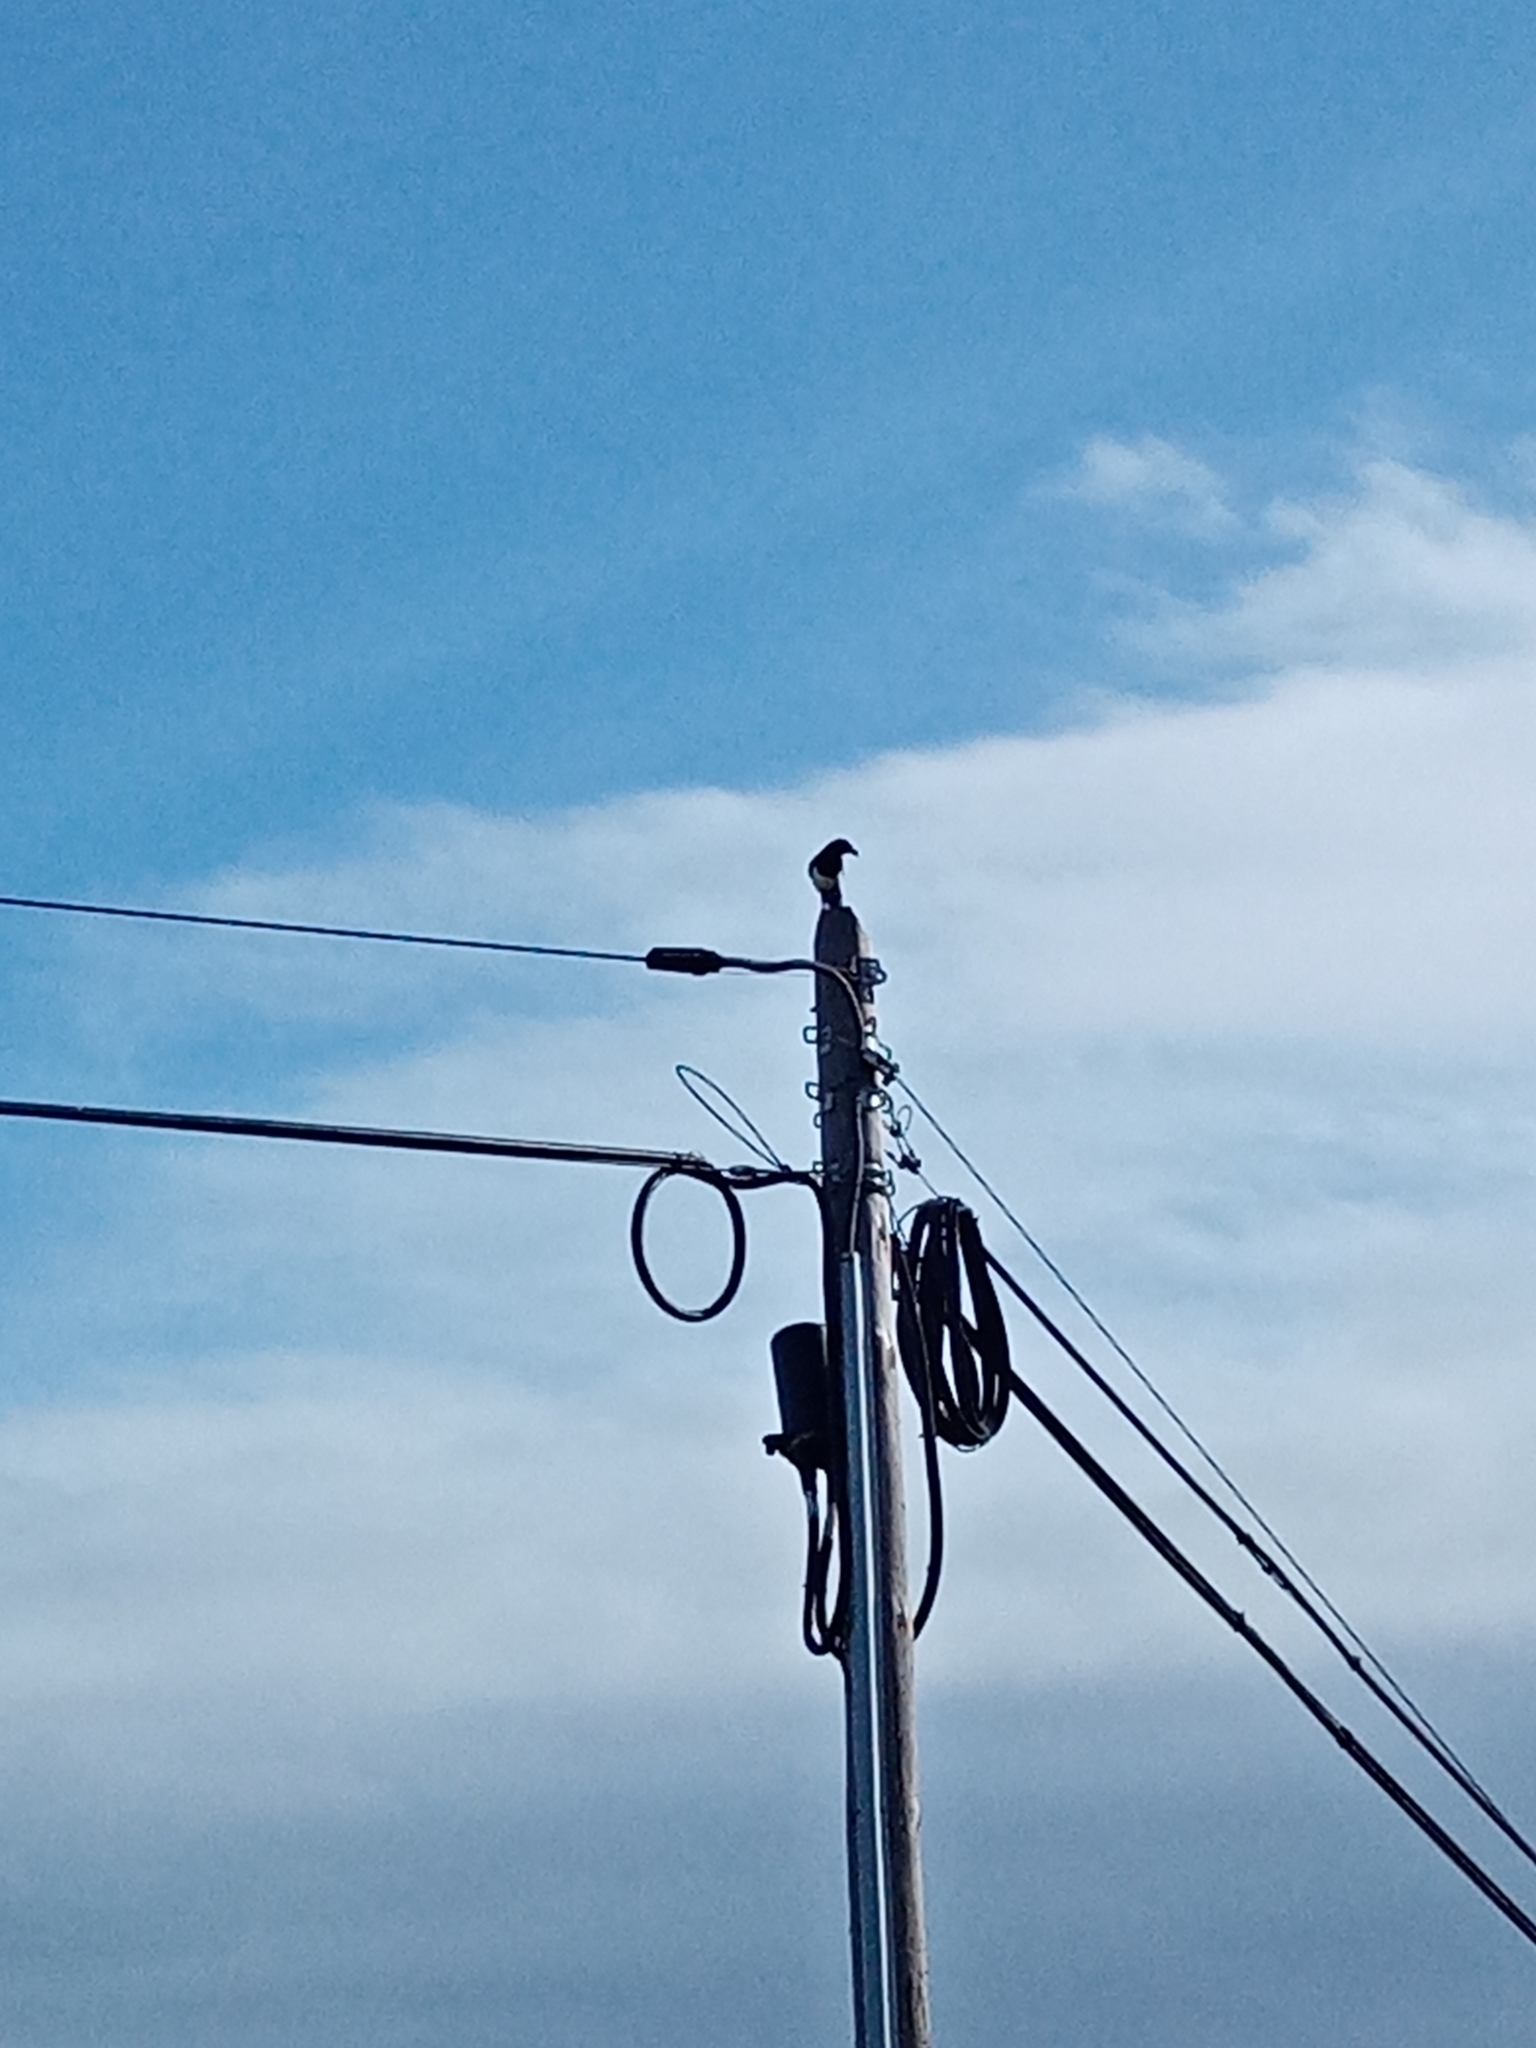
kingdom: Animalia
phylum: Chordata
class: Aves
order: Passeriformes
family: Corvidae
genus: Pica
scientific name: Pica pica
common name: Eurasian magpie
